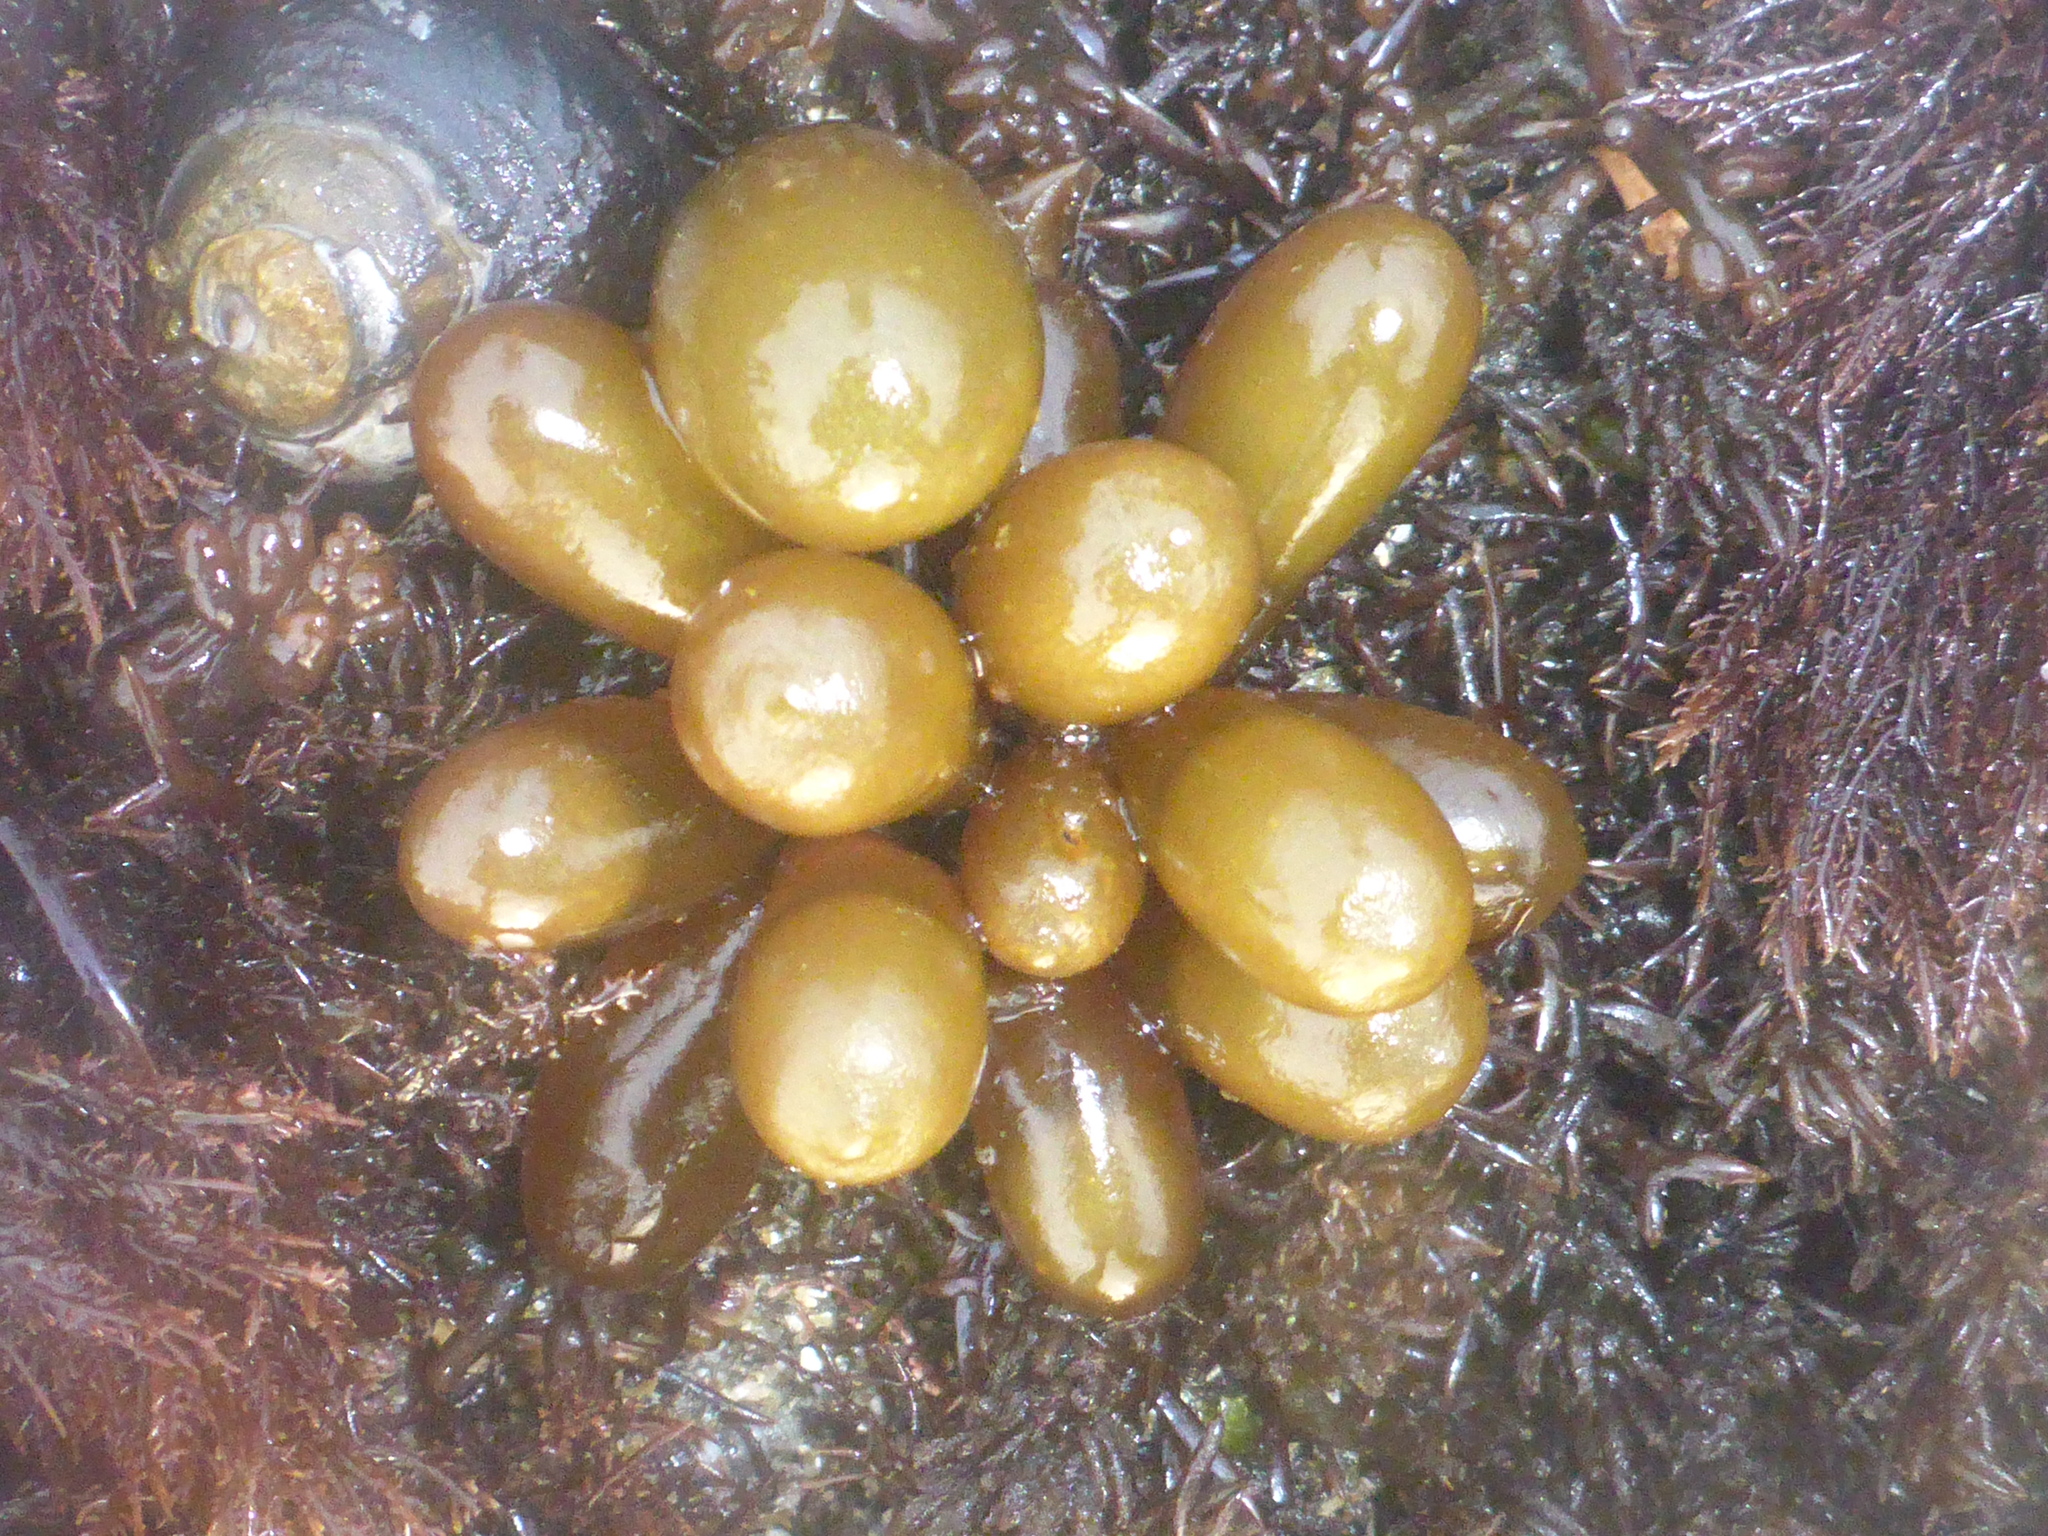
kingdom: Plantae
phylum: Rhodophyta
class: Florideophyceae
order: Palmariales
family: Palmariaceae
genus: Halosaccion
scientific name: Halosaccion glandiforme
